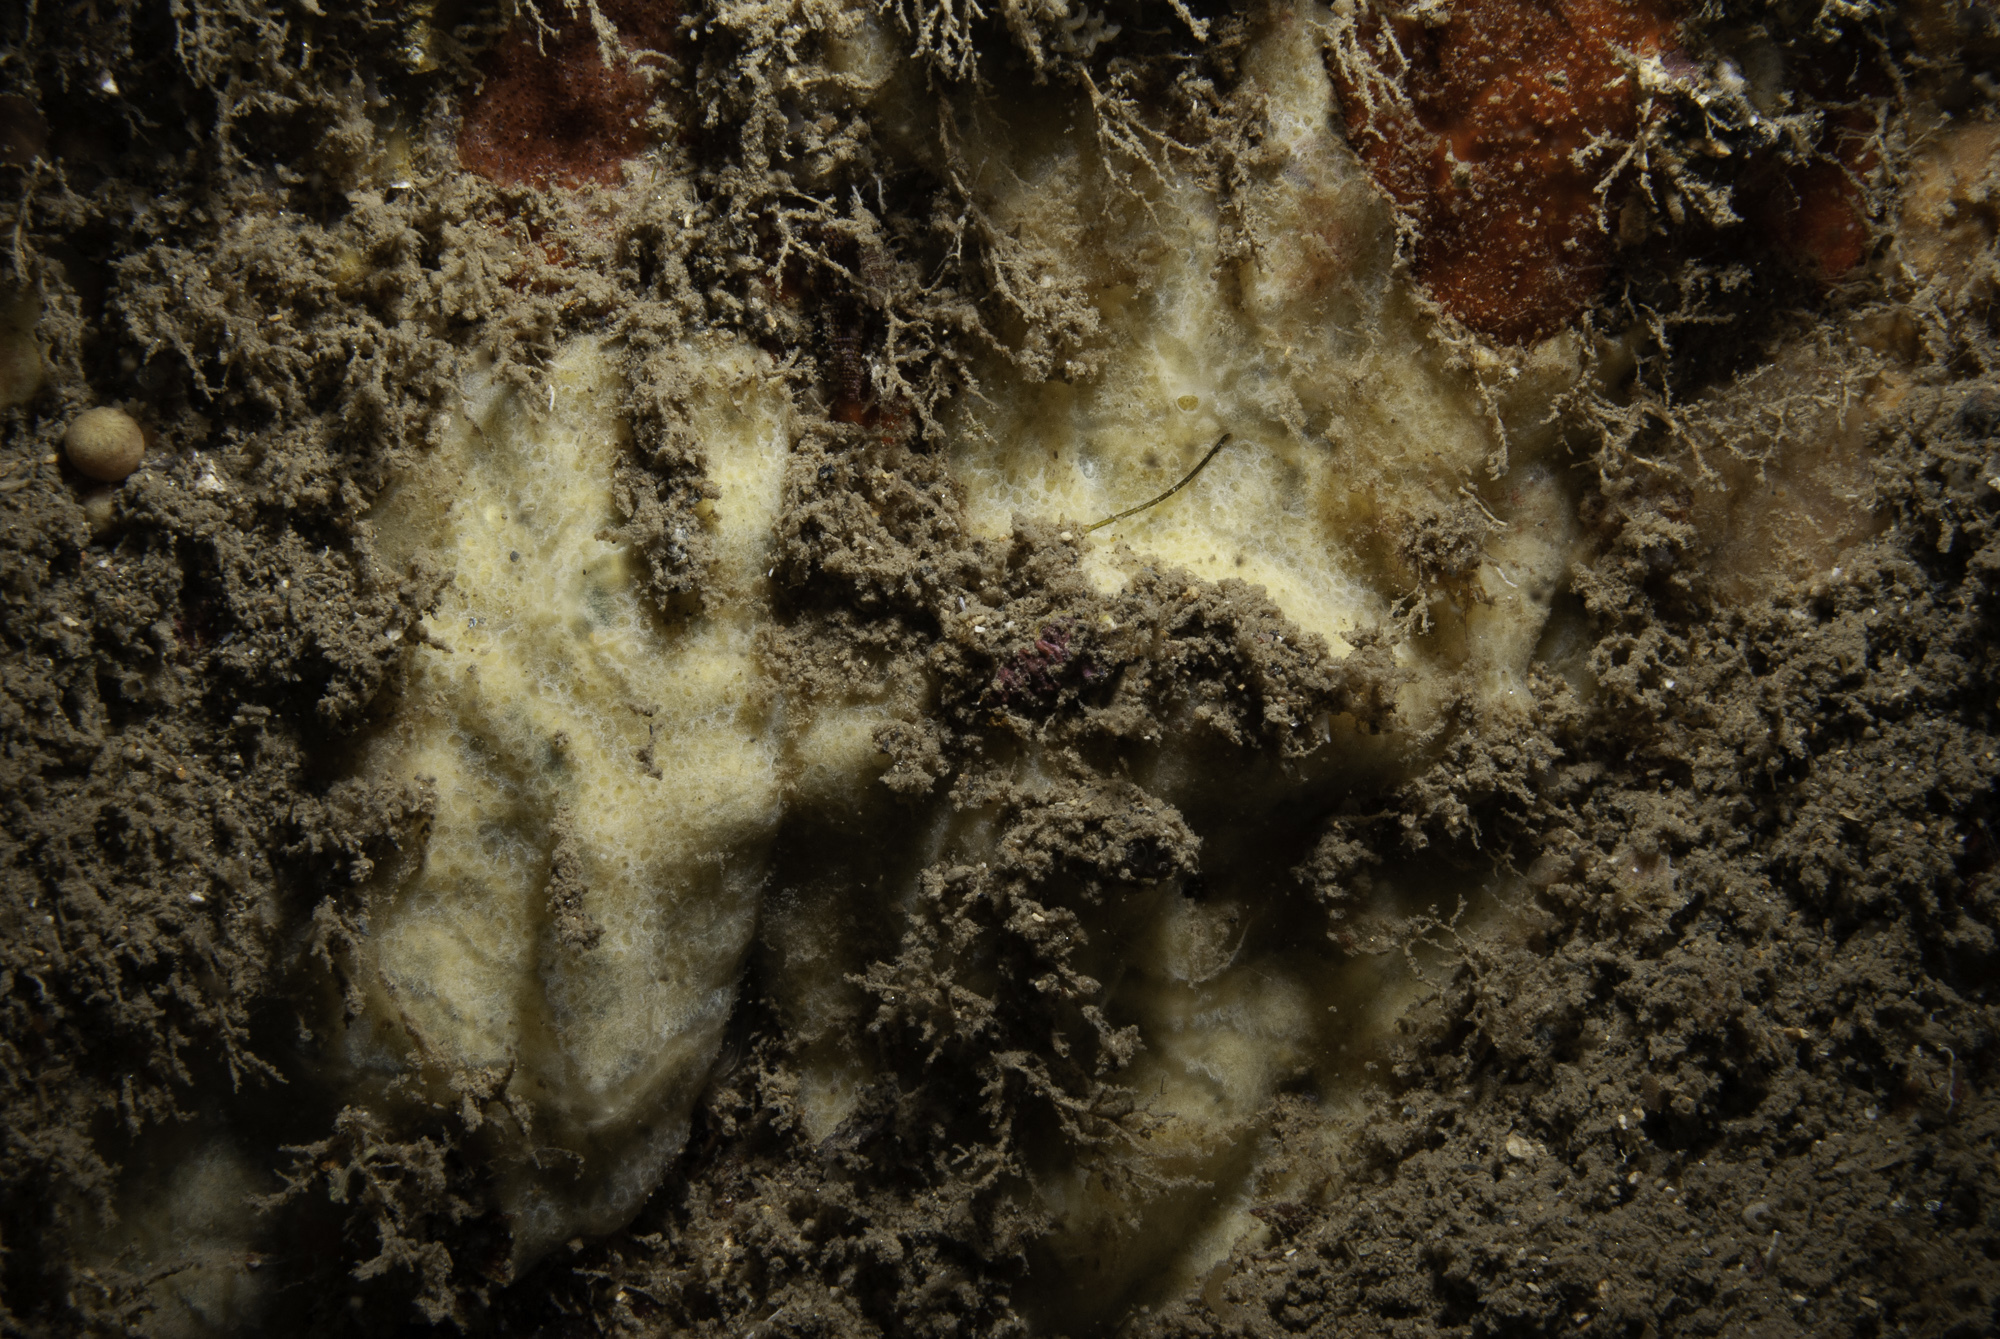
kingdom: Animalia
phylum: Porifera
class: Demospongiae
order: Poecilosclerida
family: Hymedesmiidae
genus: Hymedesmia
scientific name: Hymedesmia versicolor
